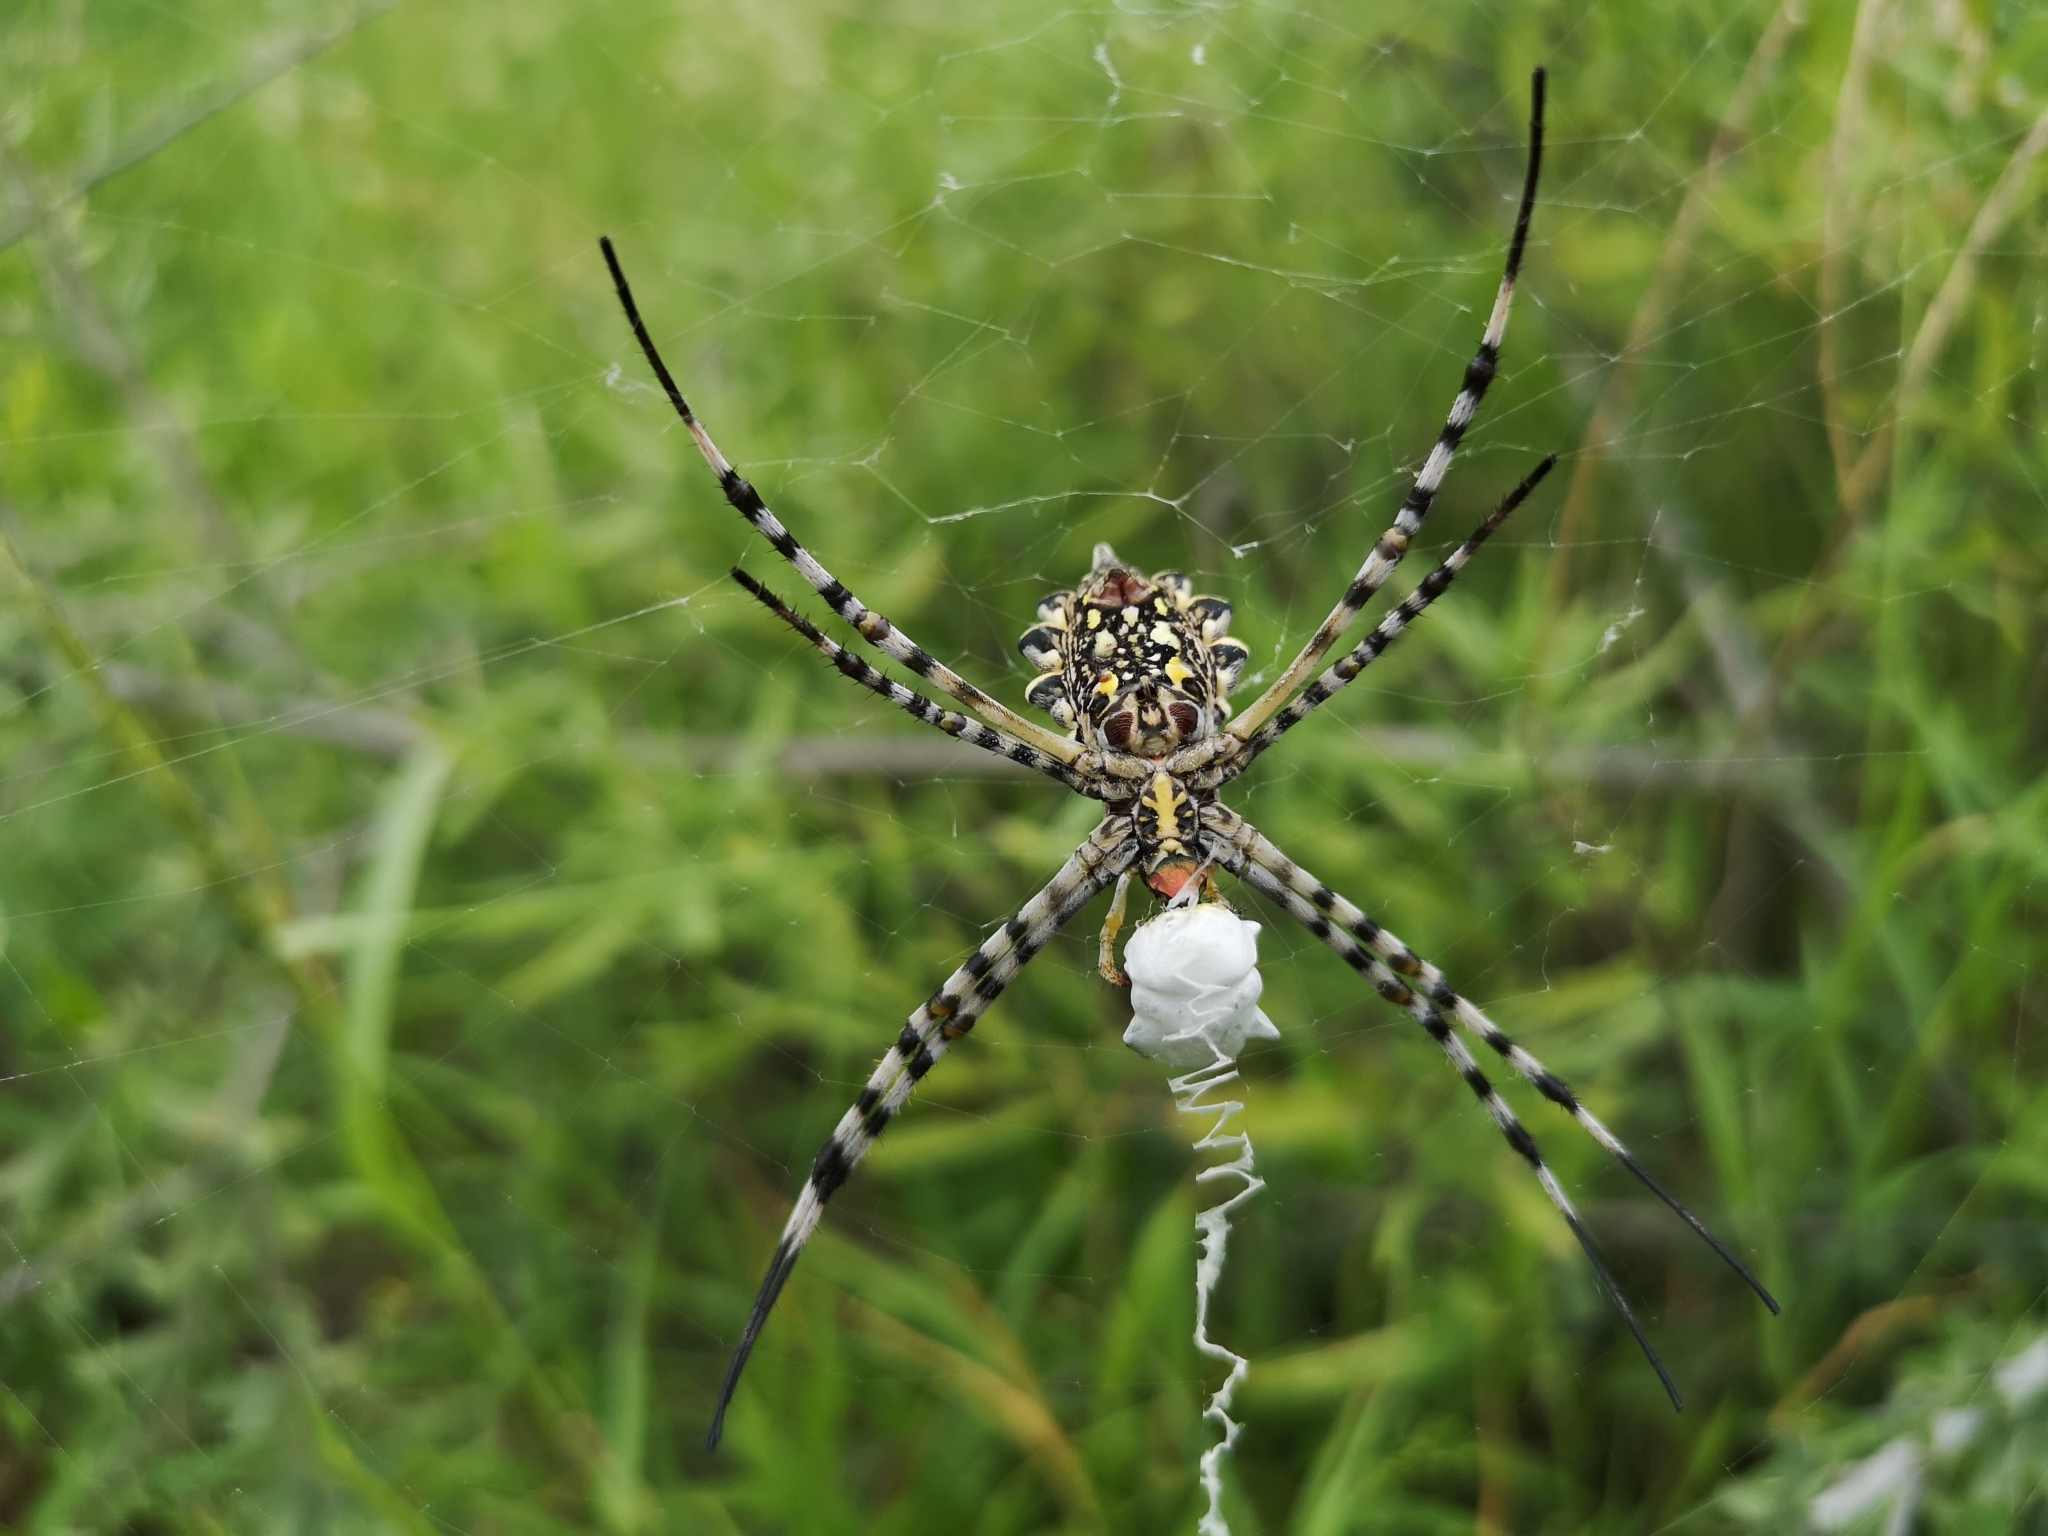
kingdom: Animalia
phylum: Arthropoda
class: Arachnida
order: Araneae
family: Araneidae
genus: Argiope
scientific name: Argiope australis
